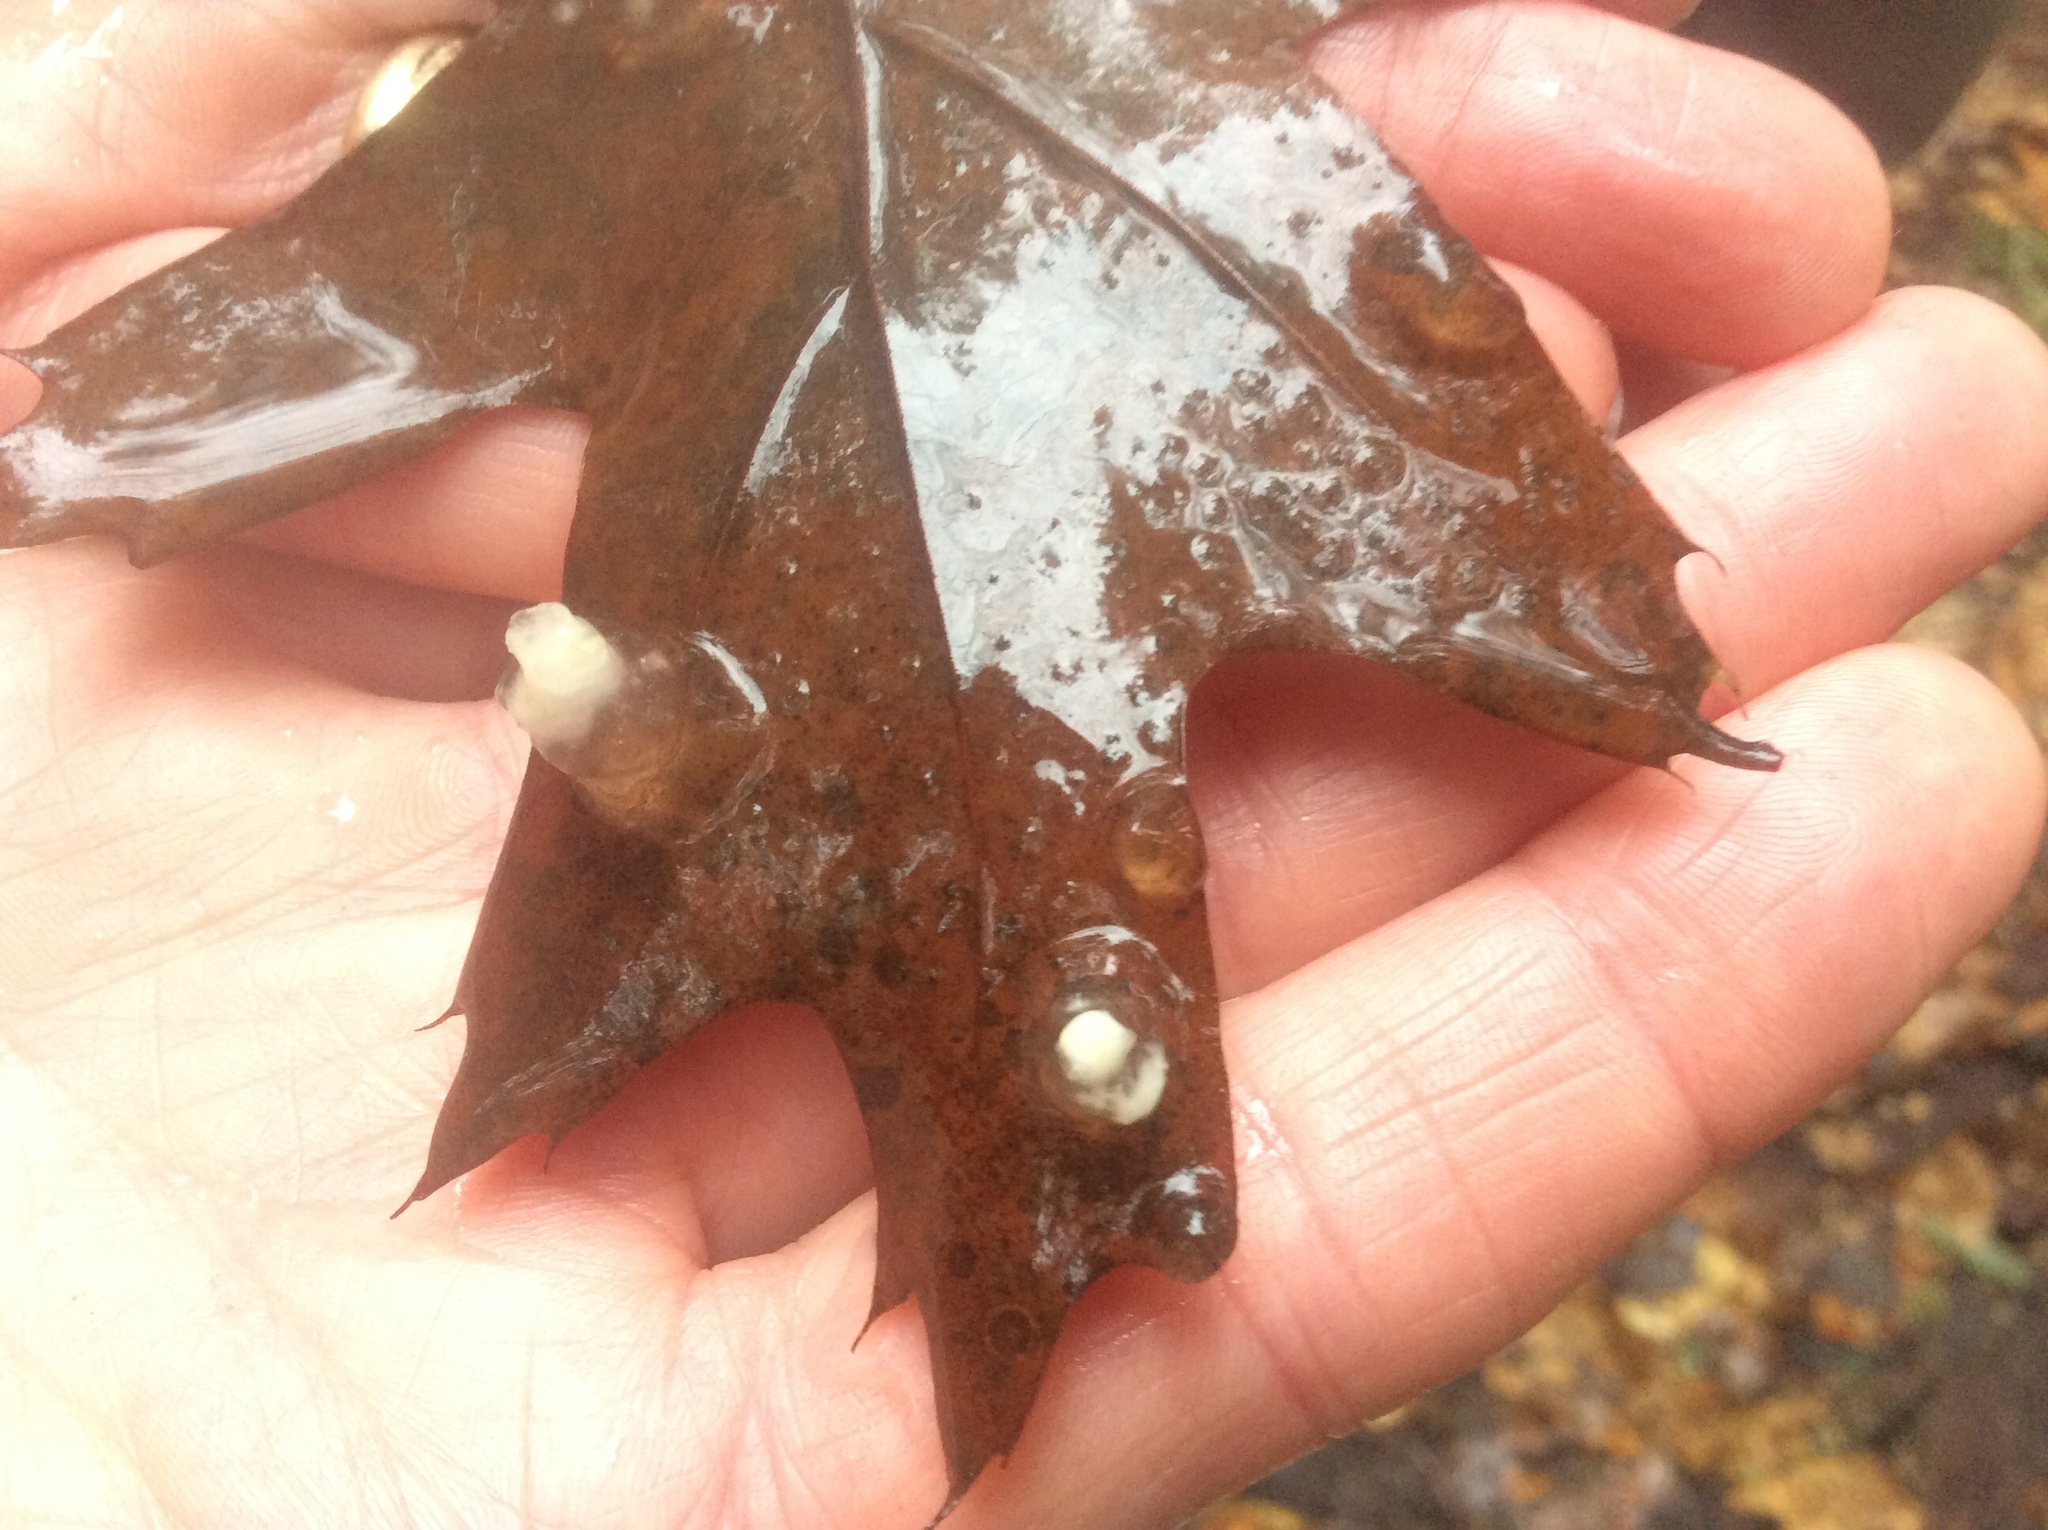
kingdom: Animalia
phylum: Chordata
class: Amphibia
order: Caudata
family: Ambystomatidae
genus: Ambystoma
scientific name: Ambystoma maculatum
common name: Spotted salamander
